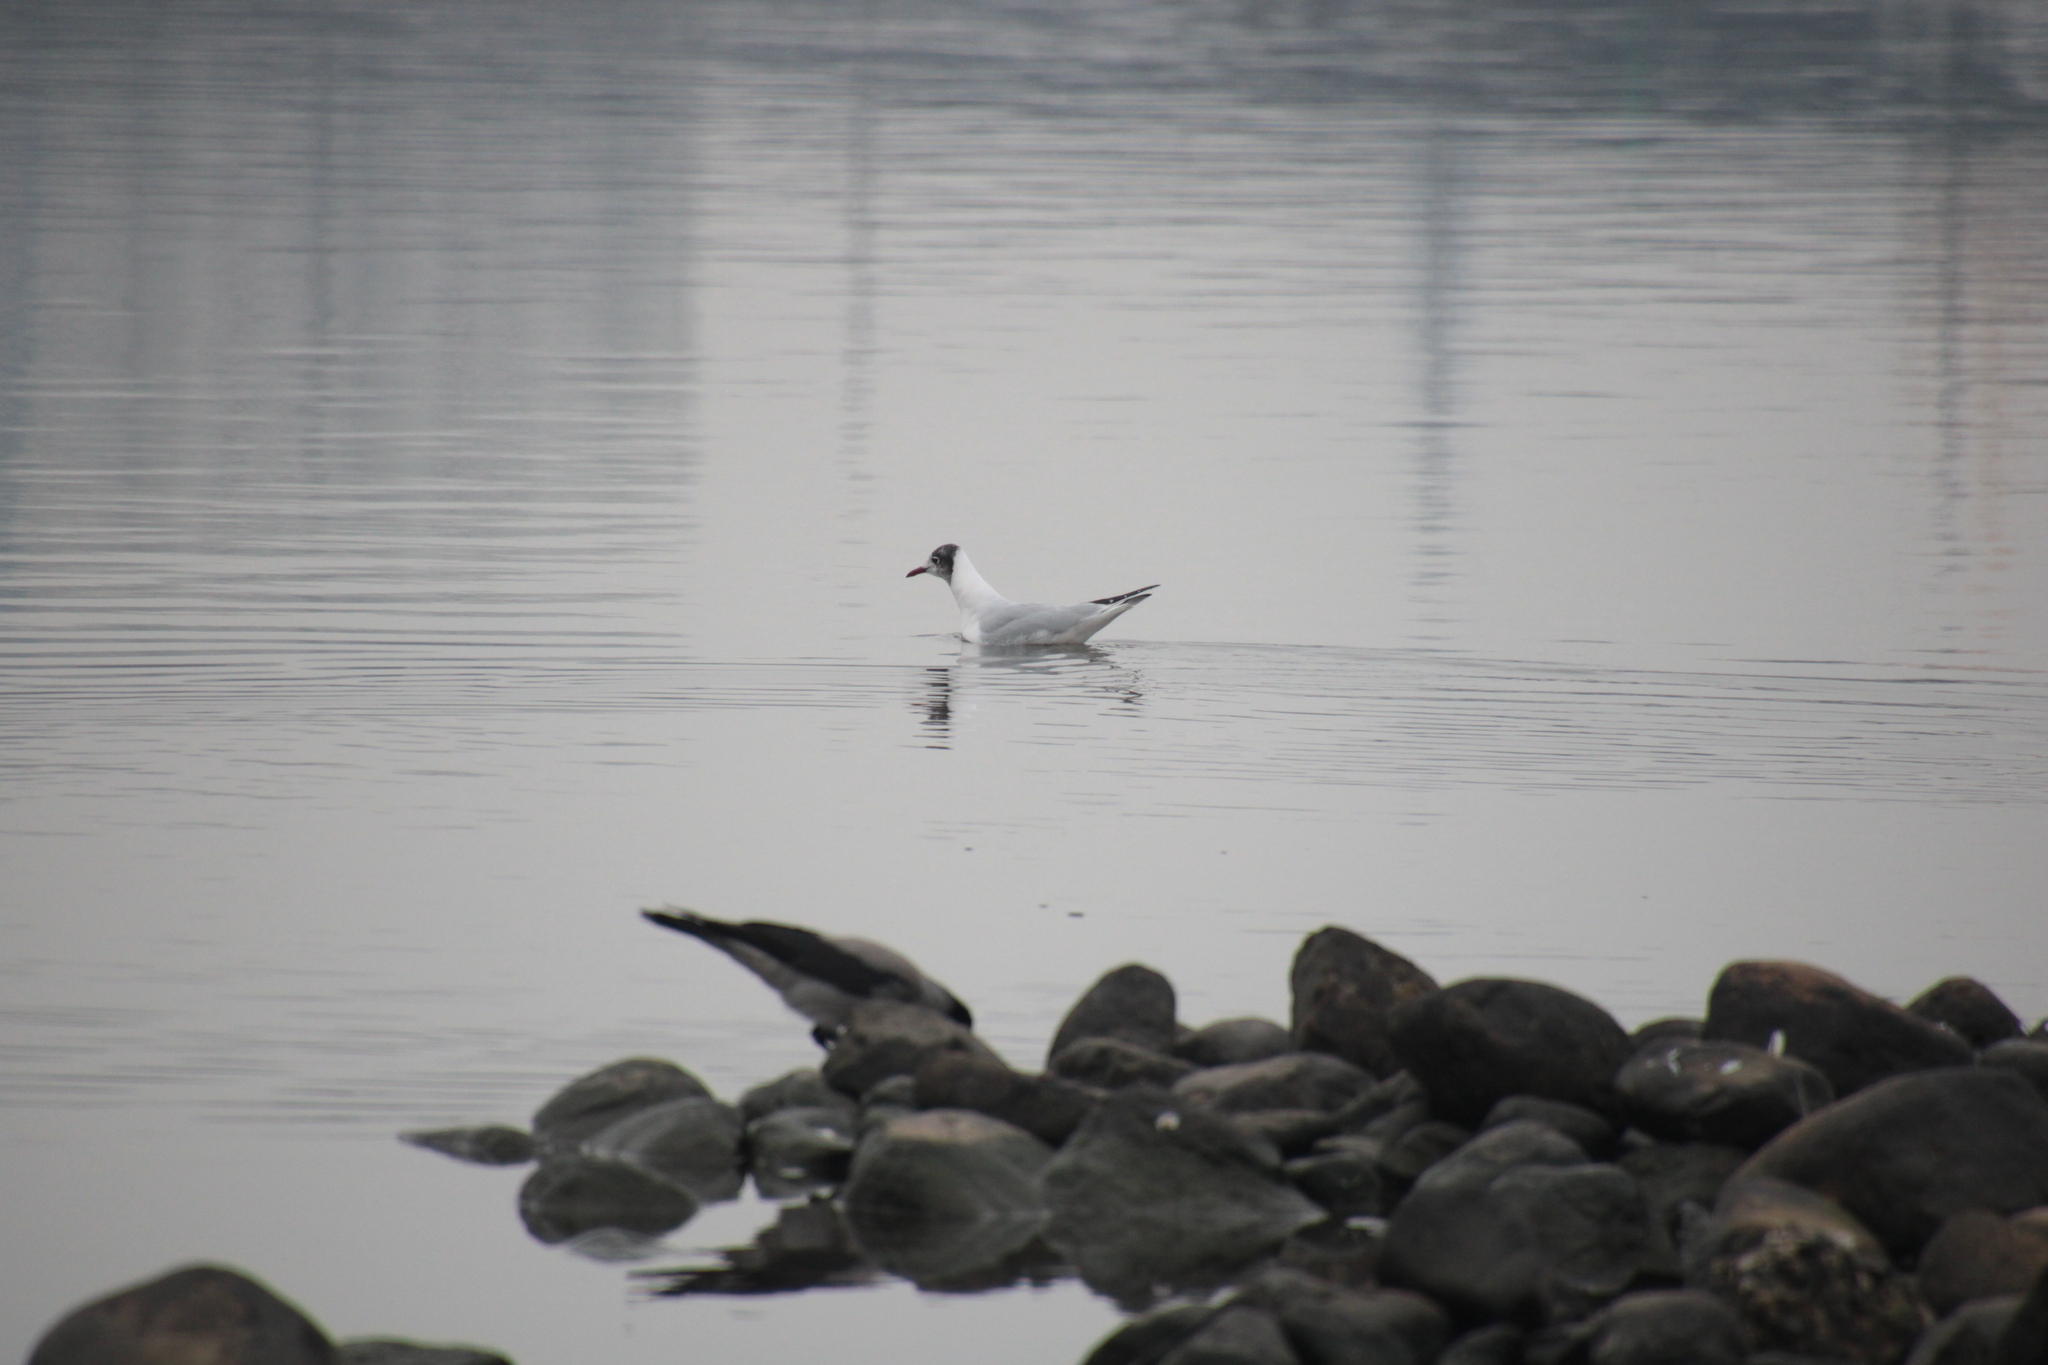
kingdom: Animalia
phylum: Chordata
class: Aves
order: Charadriiformes
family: Laridae
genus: Chroicocephalus
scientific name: Chroicocephalus ridibundus
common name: Black-headed gull
